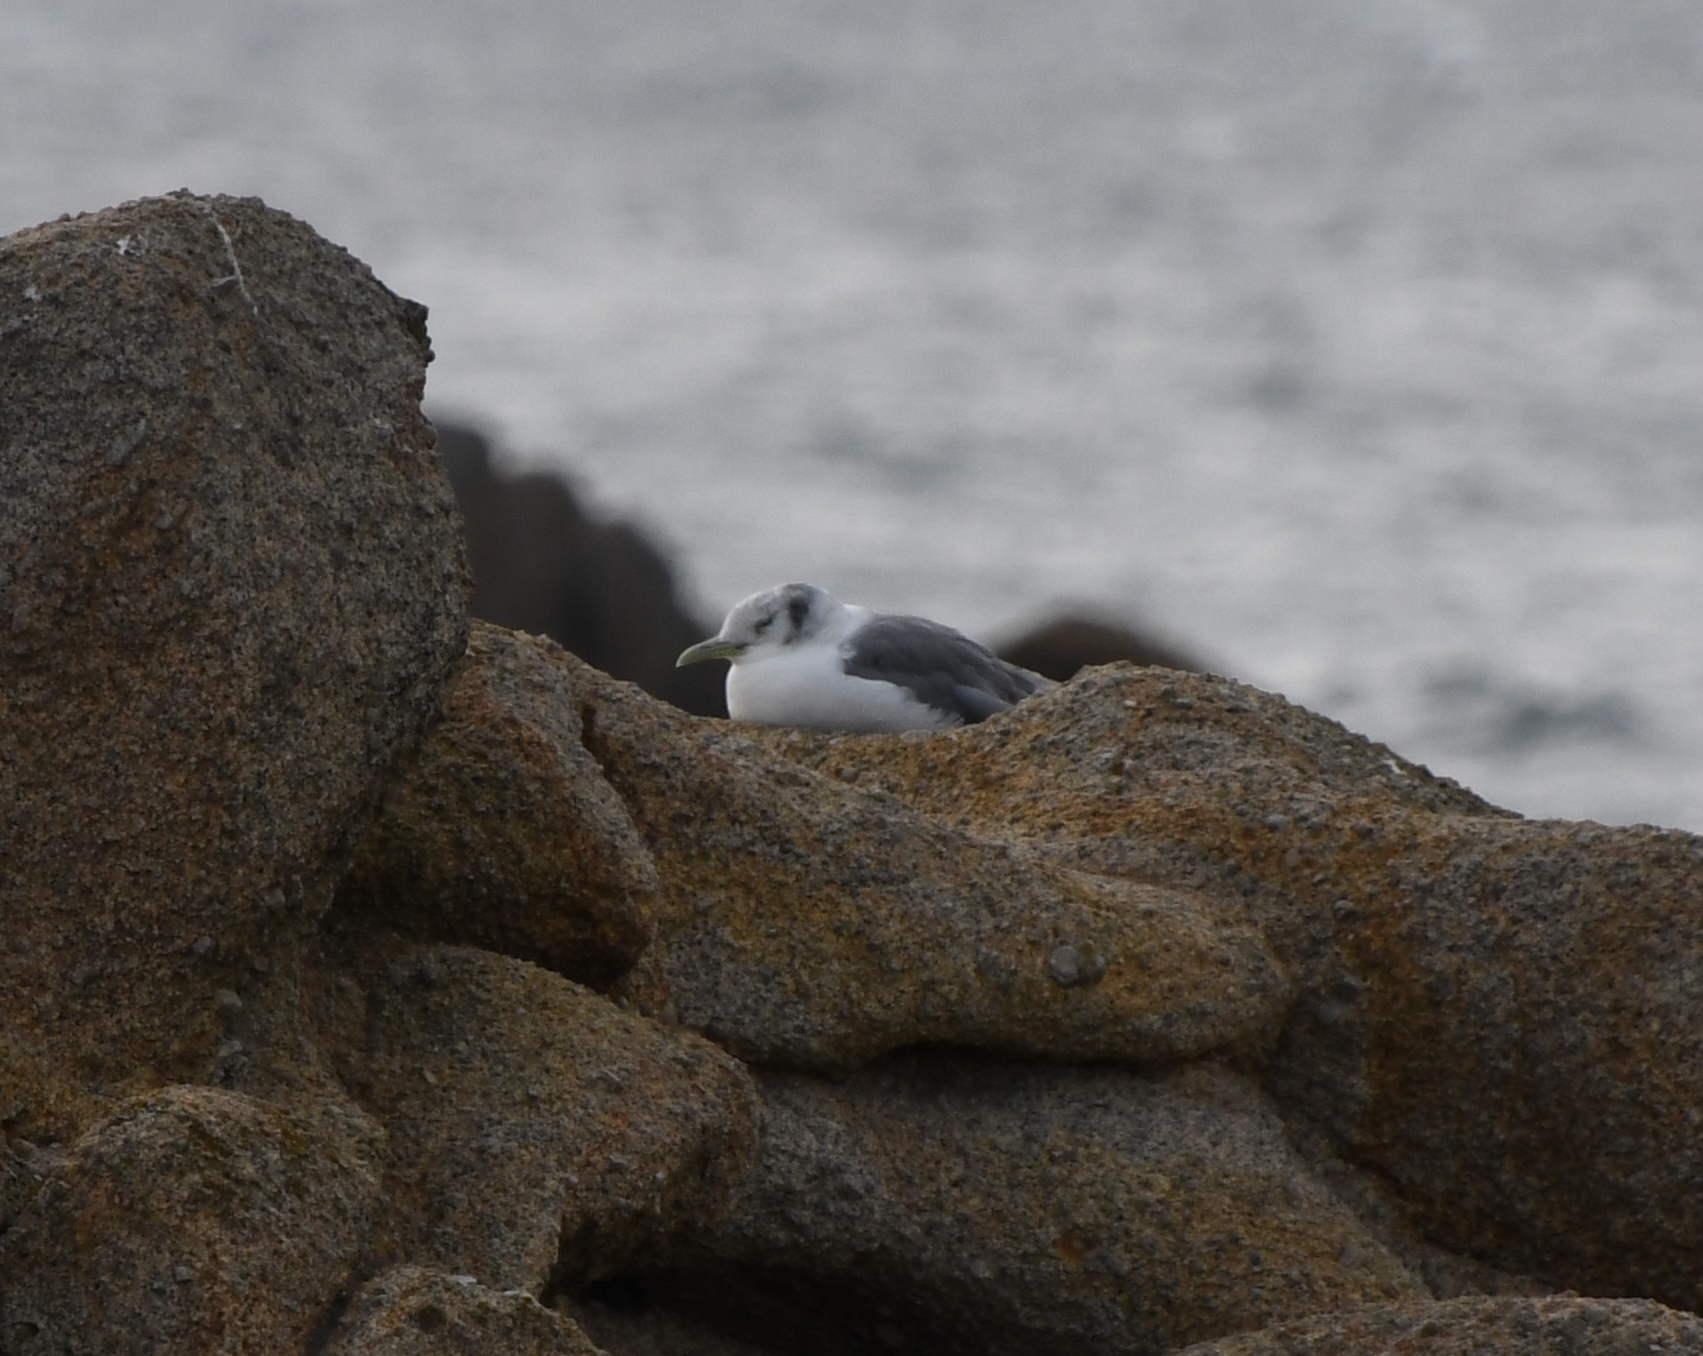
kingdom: Animalia
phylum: Chordata
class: Aves
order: Charadriiformes
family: Laridae
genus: Rissa
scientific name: Rissa tridactyla
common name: Black-legged kittiwake
